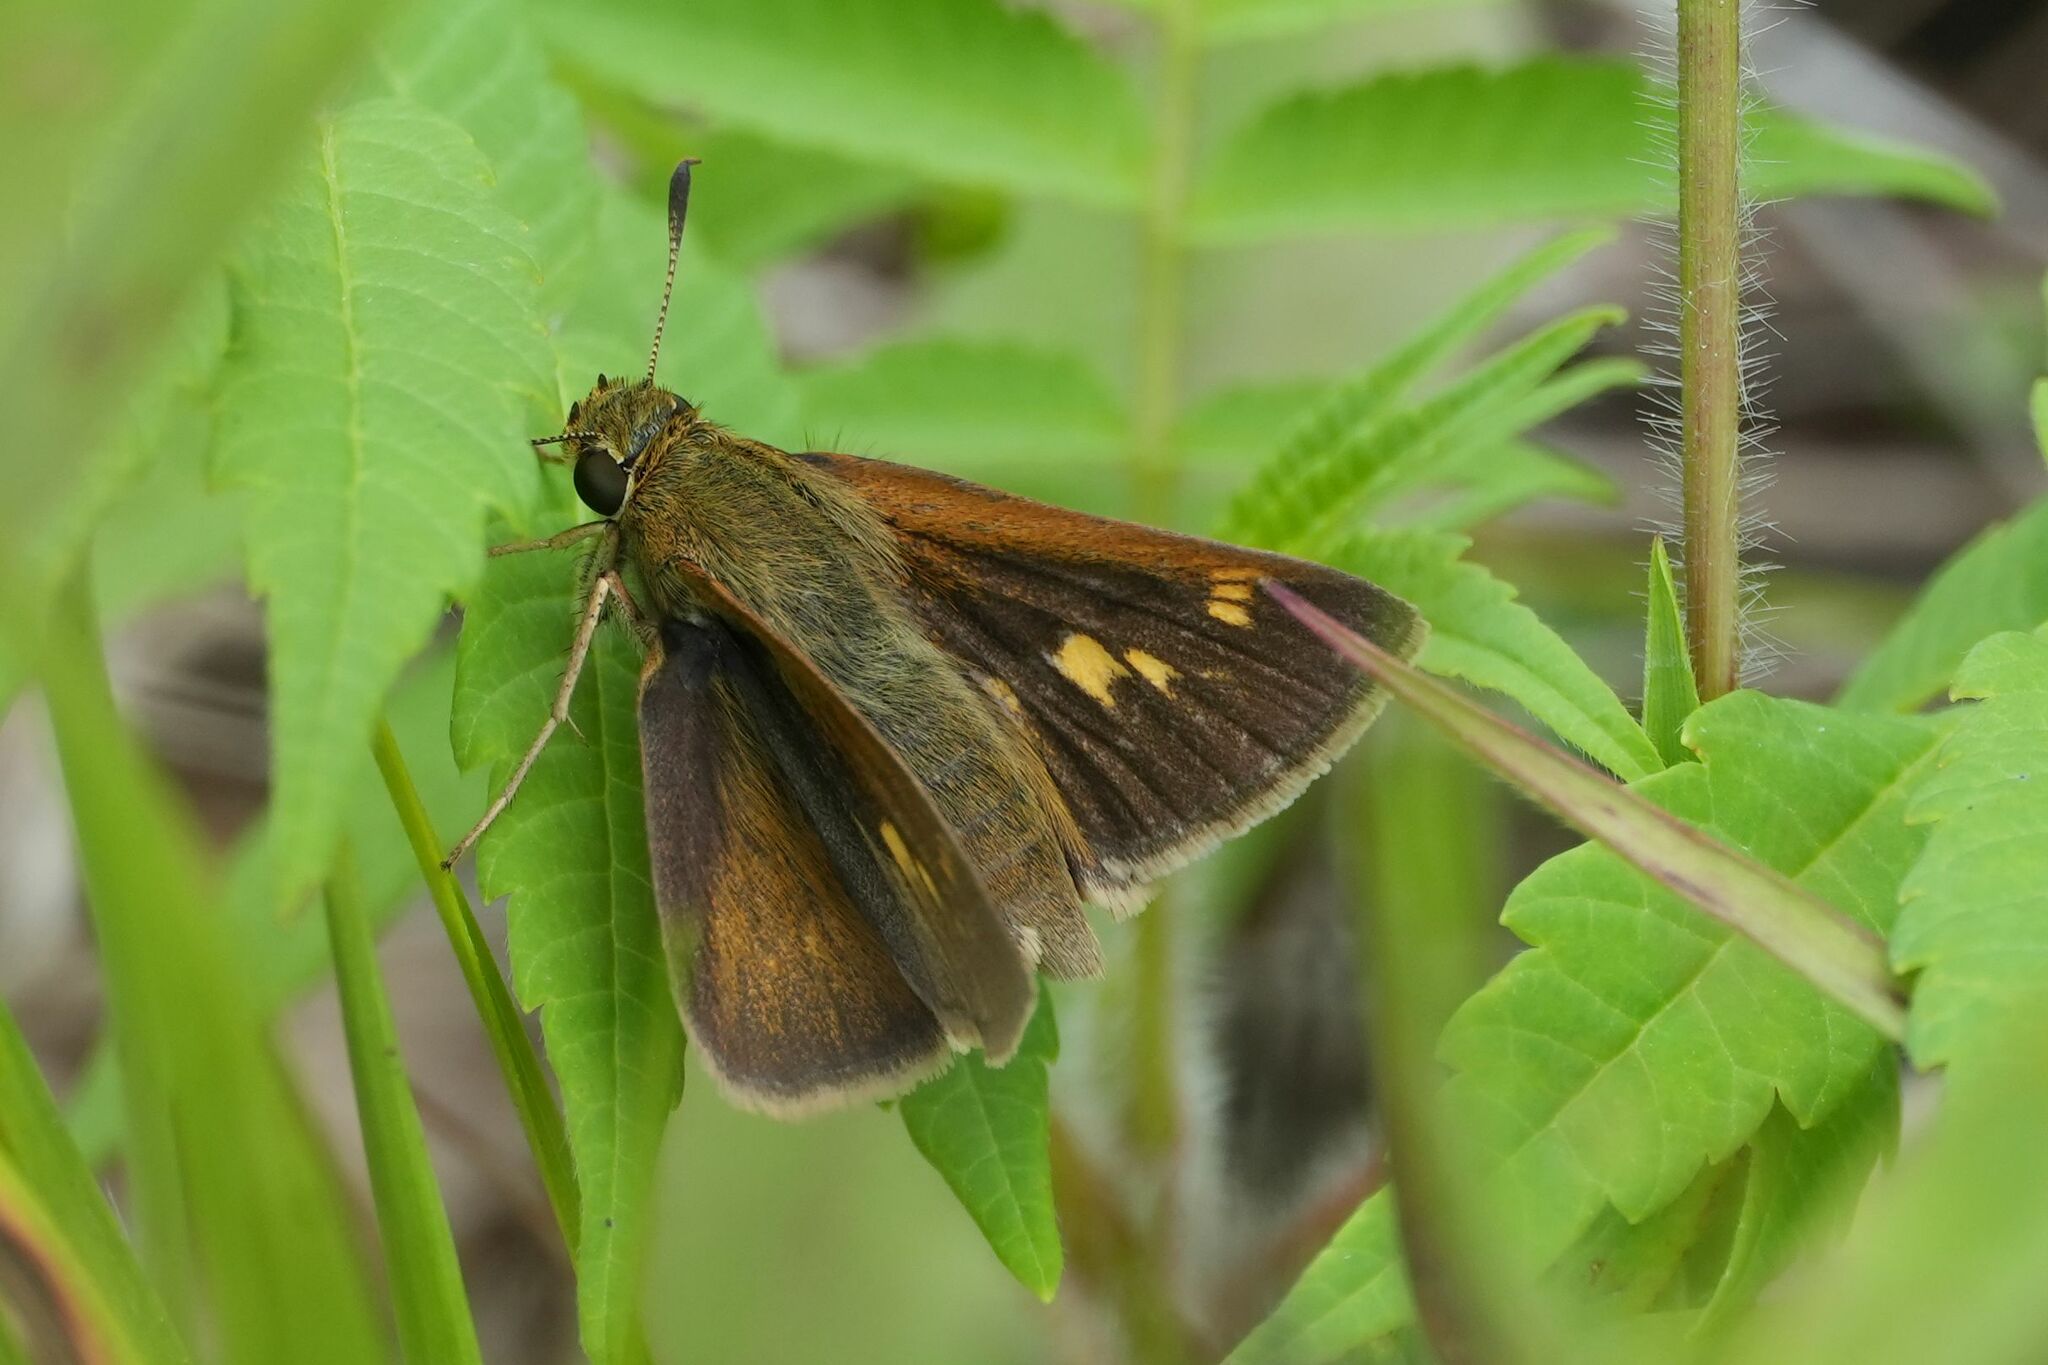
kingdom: Animalia
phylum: Arthropoda
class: Insecta
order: Lepidoptera
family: Hesperiidae
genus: Polites
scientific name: Polites egeremet
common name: Northern broken-dash
